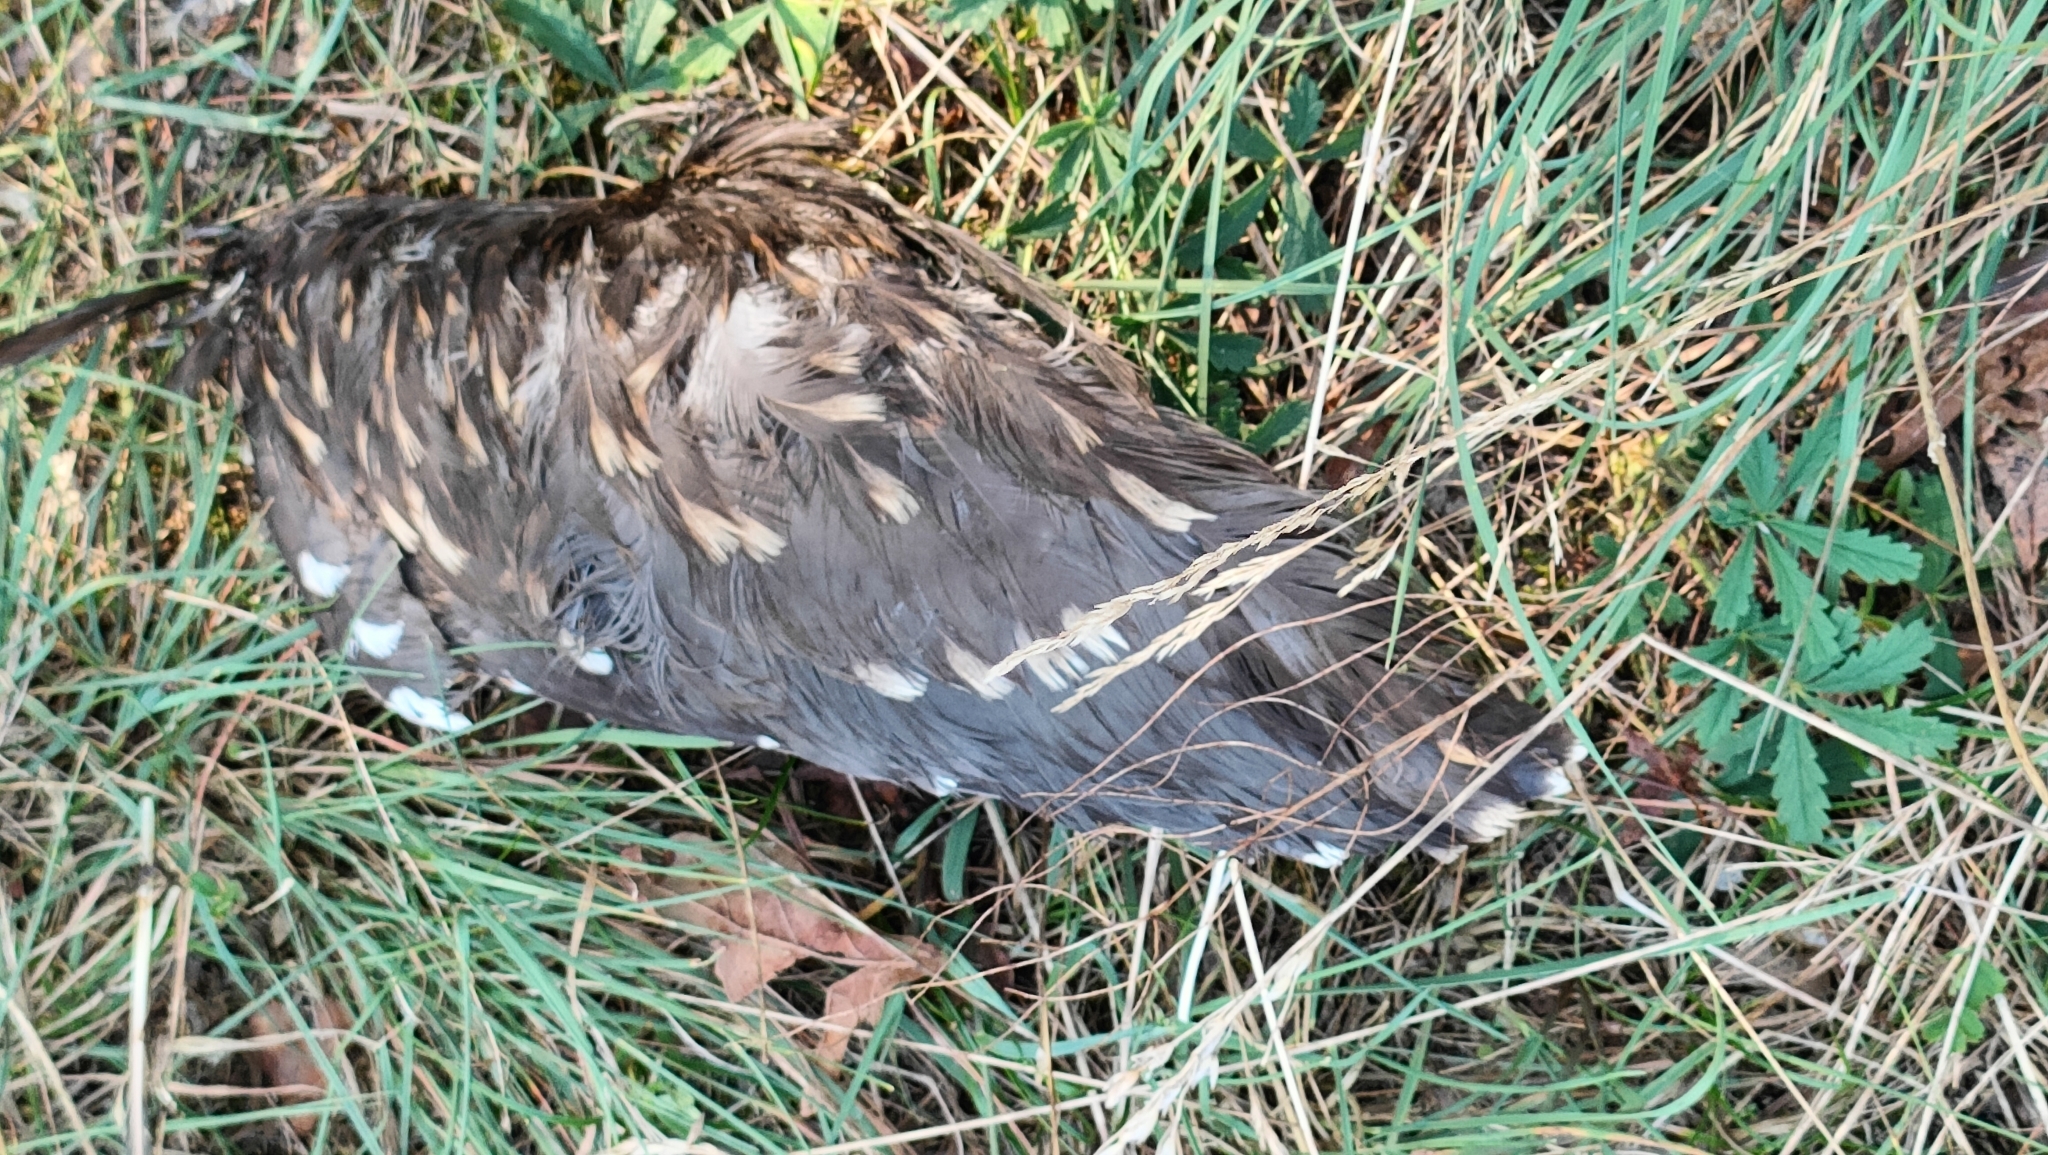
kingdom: Animalia
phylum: Chordata
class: Aves
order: Pelecaniformes
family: Ardeidae
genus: Nycticorax
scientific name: Nycticorax nycticorax
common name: Black-crowned night heron
